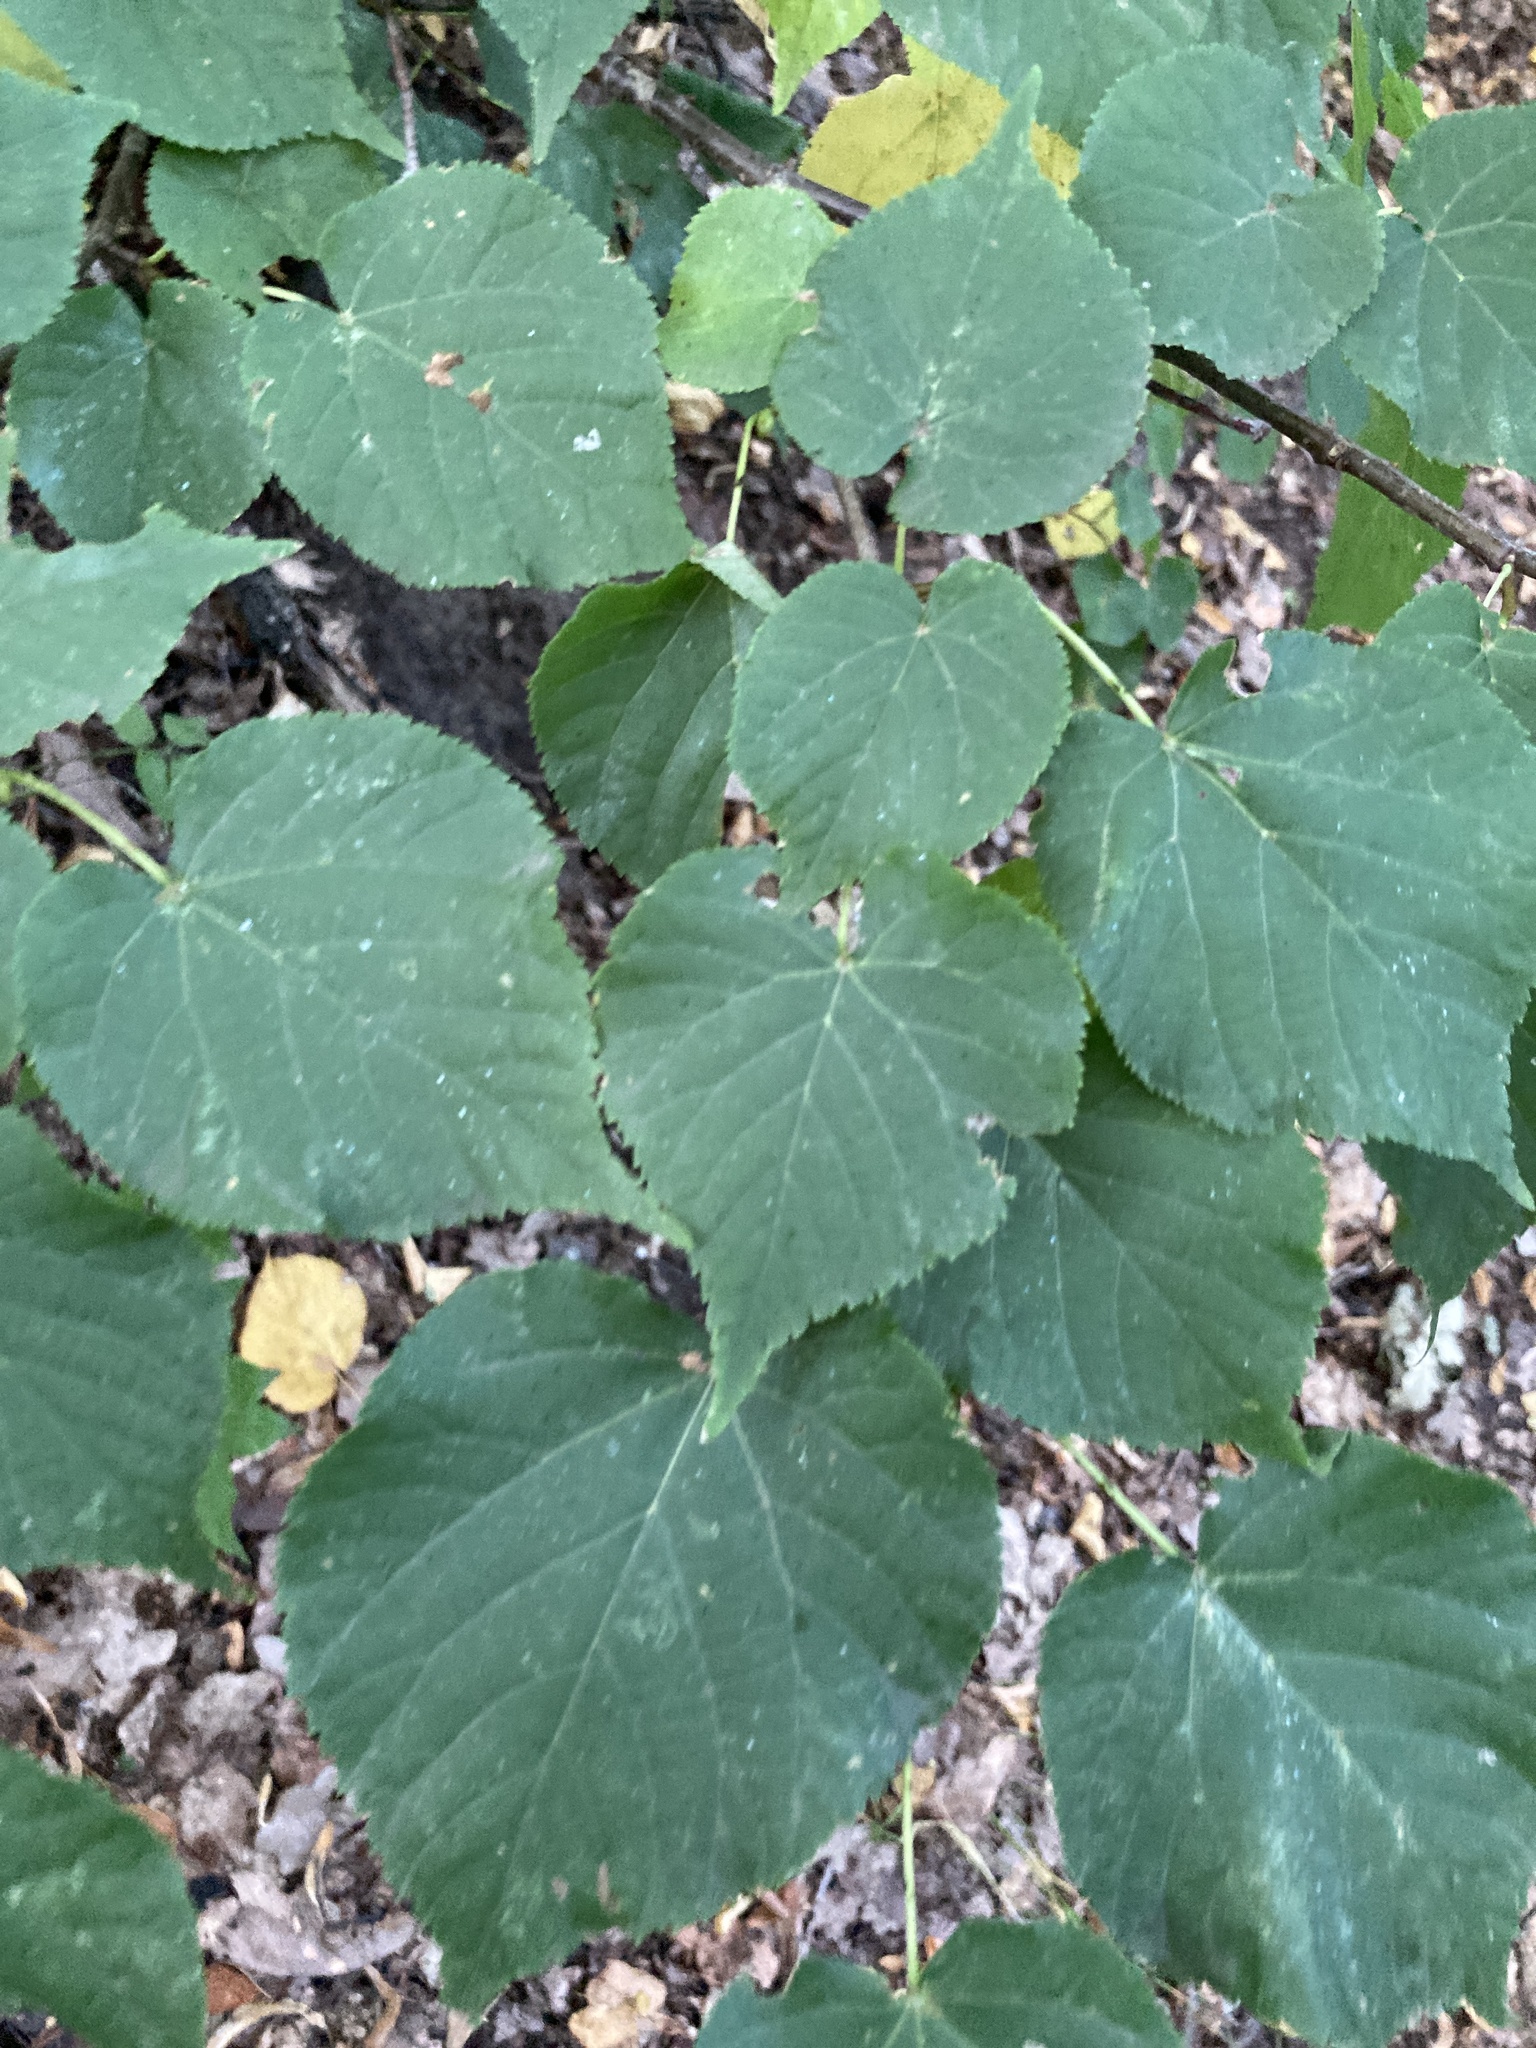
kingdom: Plantae
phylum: Tracheophyta
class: Magnoliopsida
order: Malvales
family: Malvaceae
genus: Tilia
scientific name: Tilia cordata
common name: Small-leaved lime
